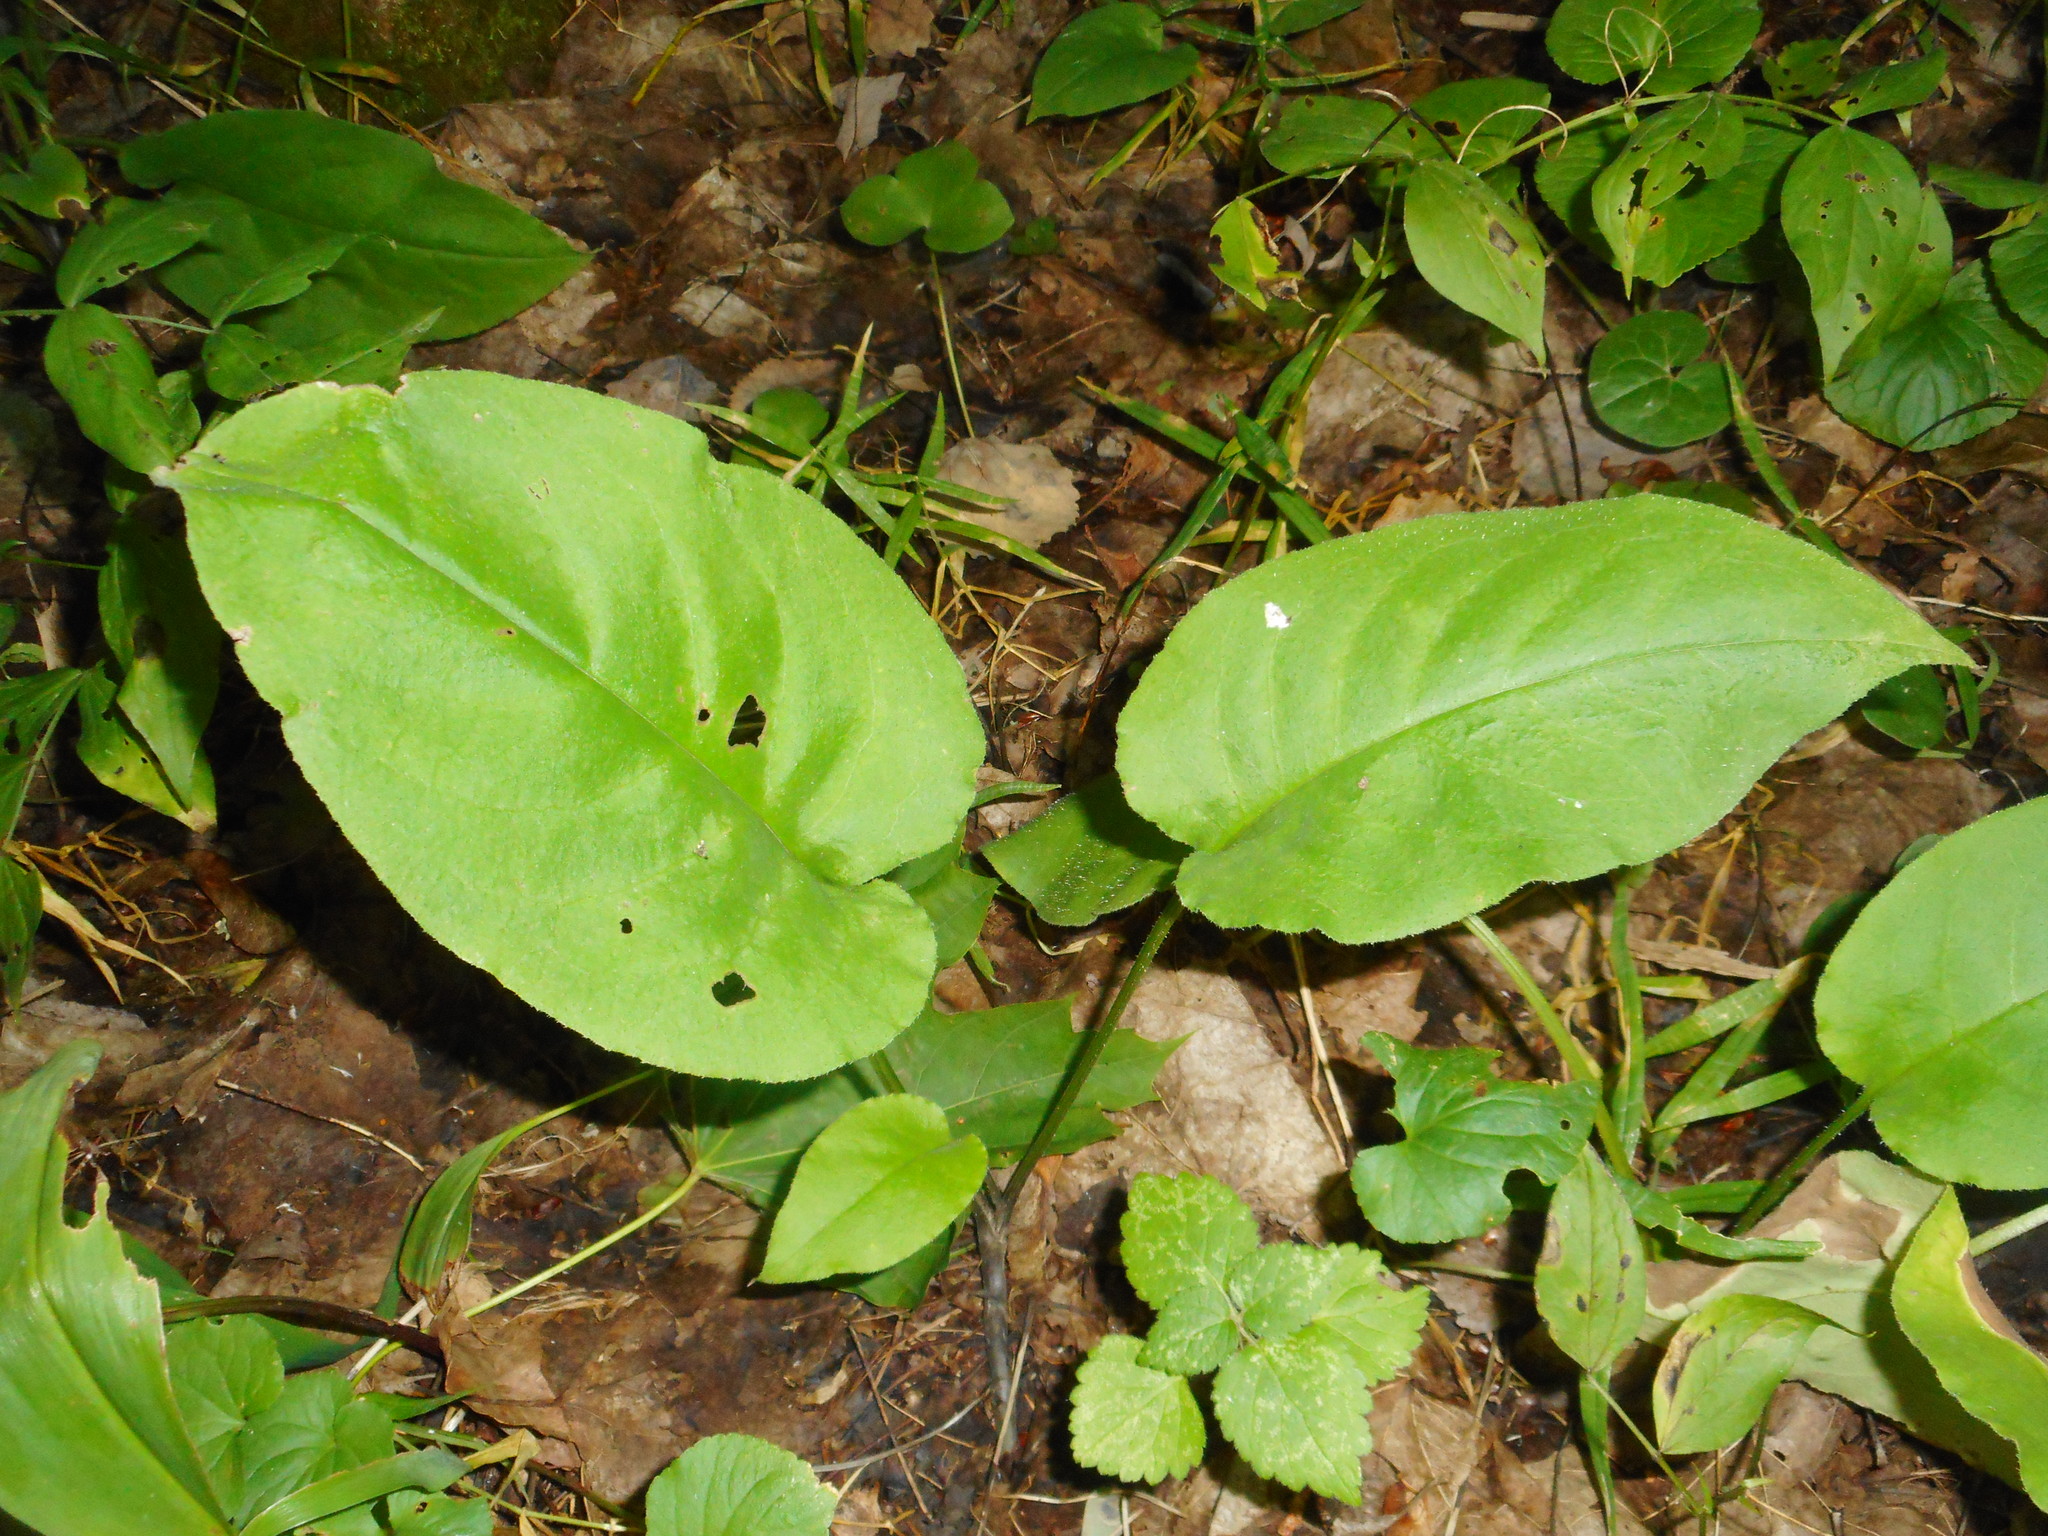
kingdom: Plantae
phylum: Tracheophyta
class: Magnoliopsida
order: Boraginales
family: Boraginaceae
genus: Pulmonaria
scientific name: Pulmonaria obscura
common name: Suffolk lungwort
